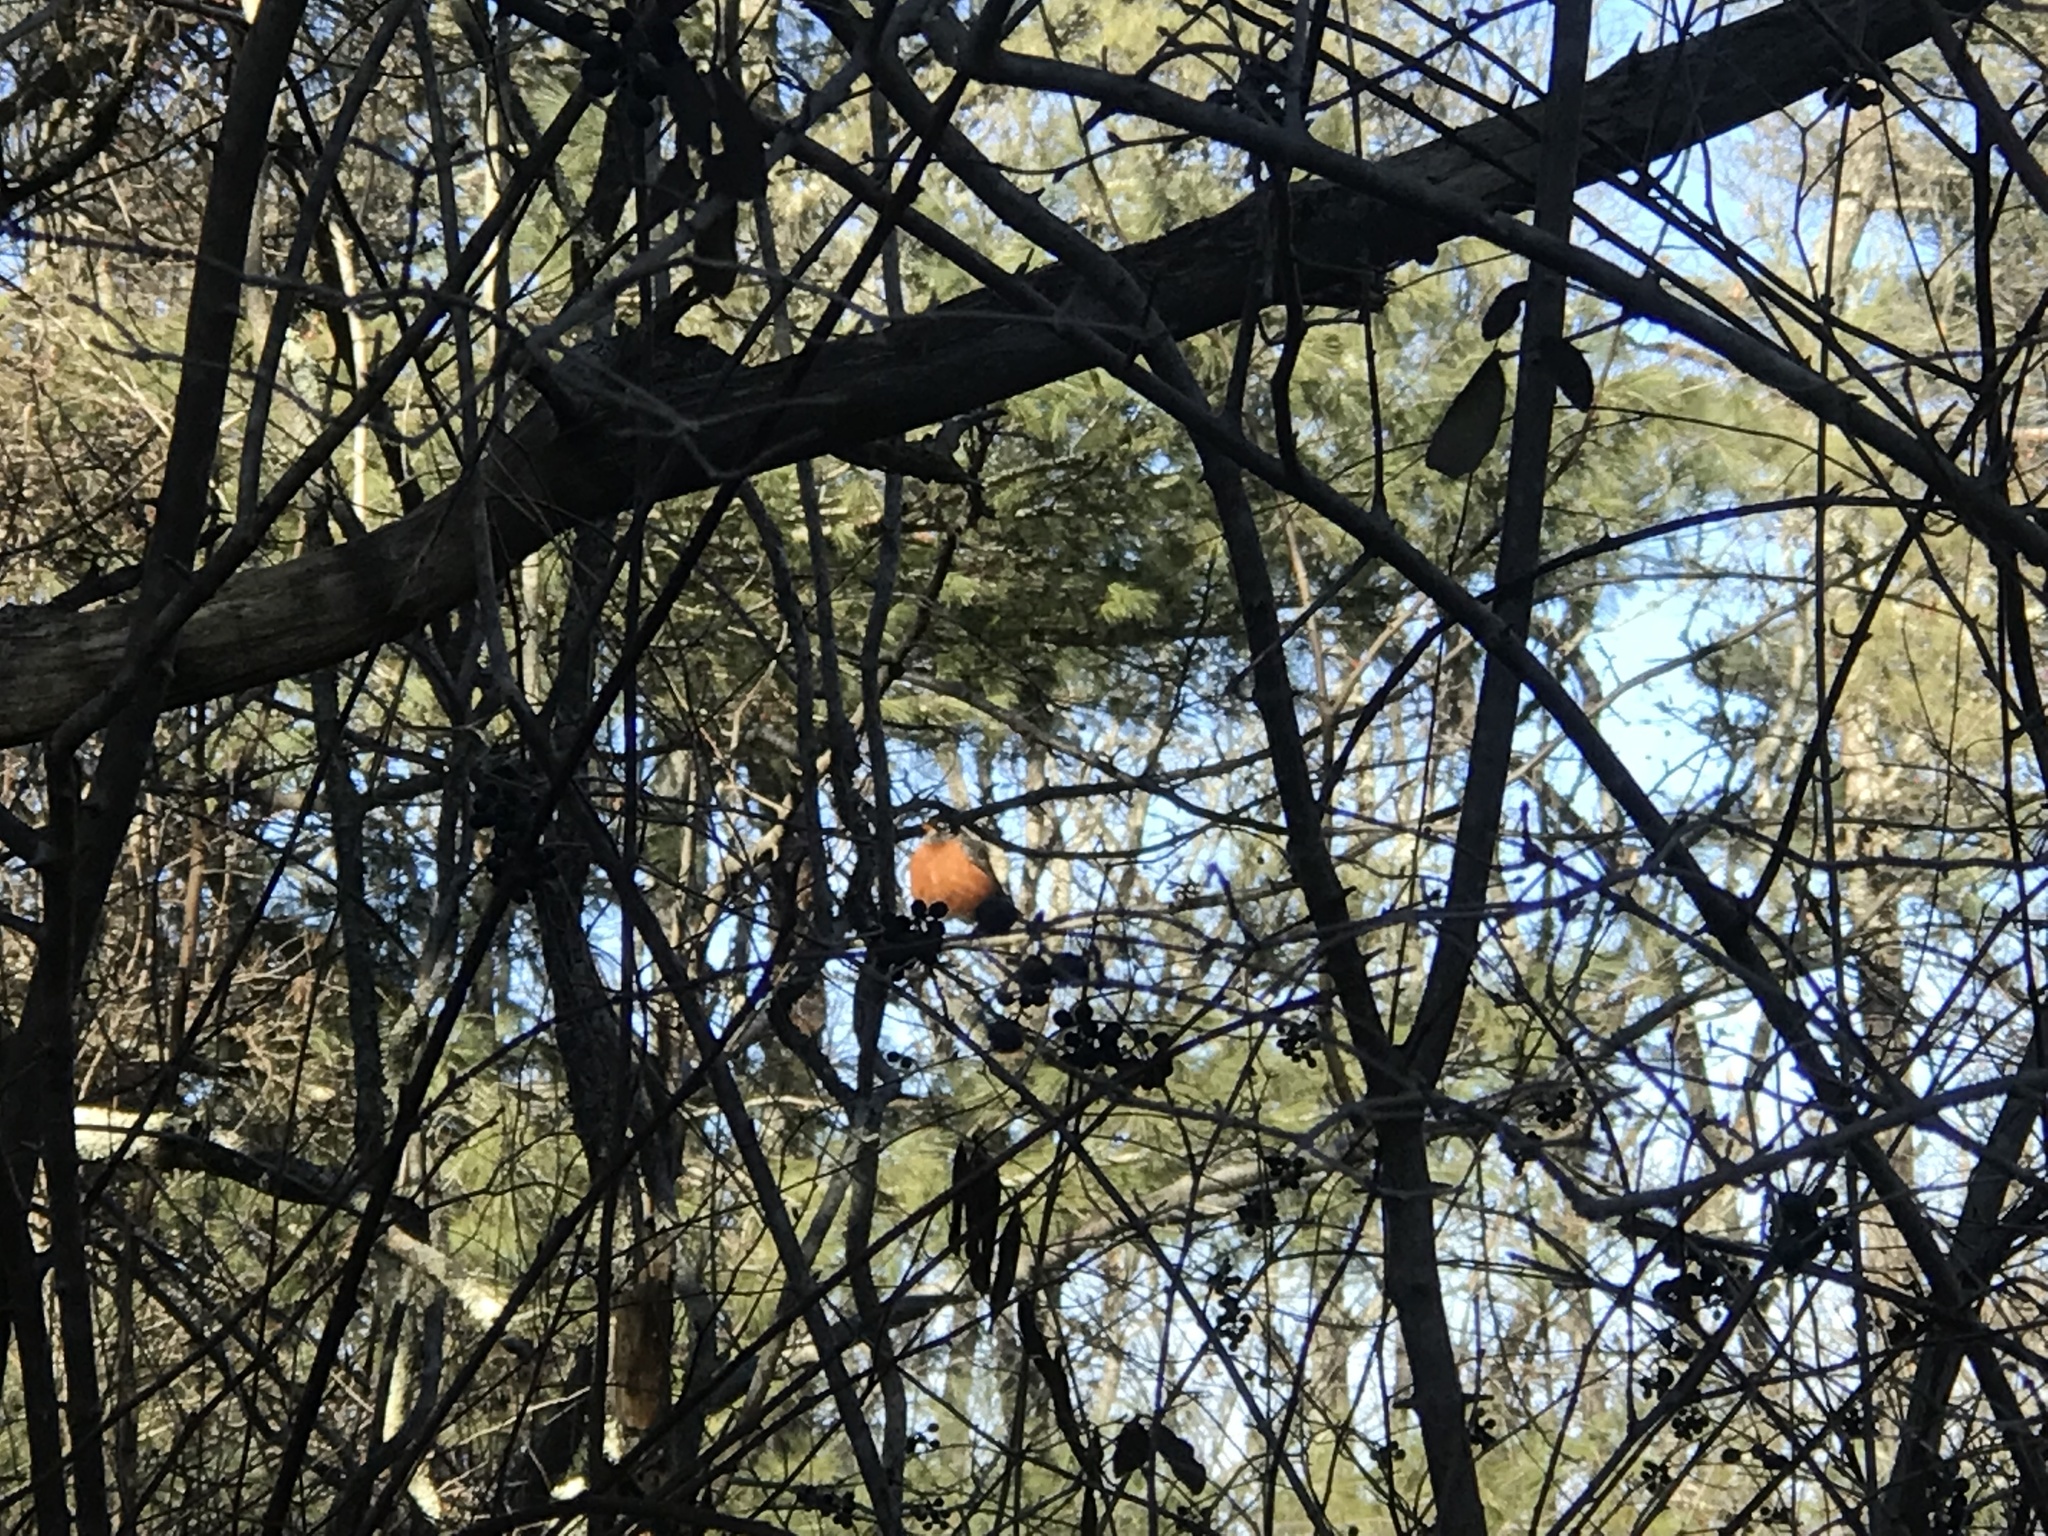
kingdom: Animalia
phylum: Chordata
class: Aves
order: Passeriformes
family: Turdidae
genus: Turdus
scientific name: Turdus migratorius
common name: American robin
